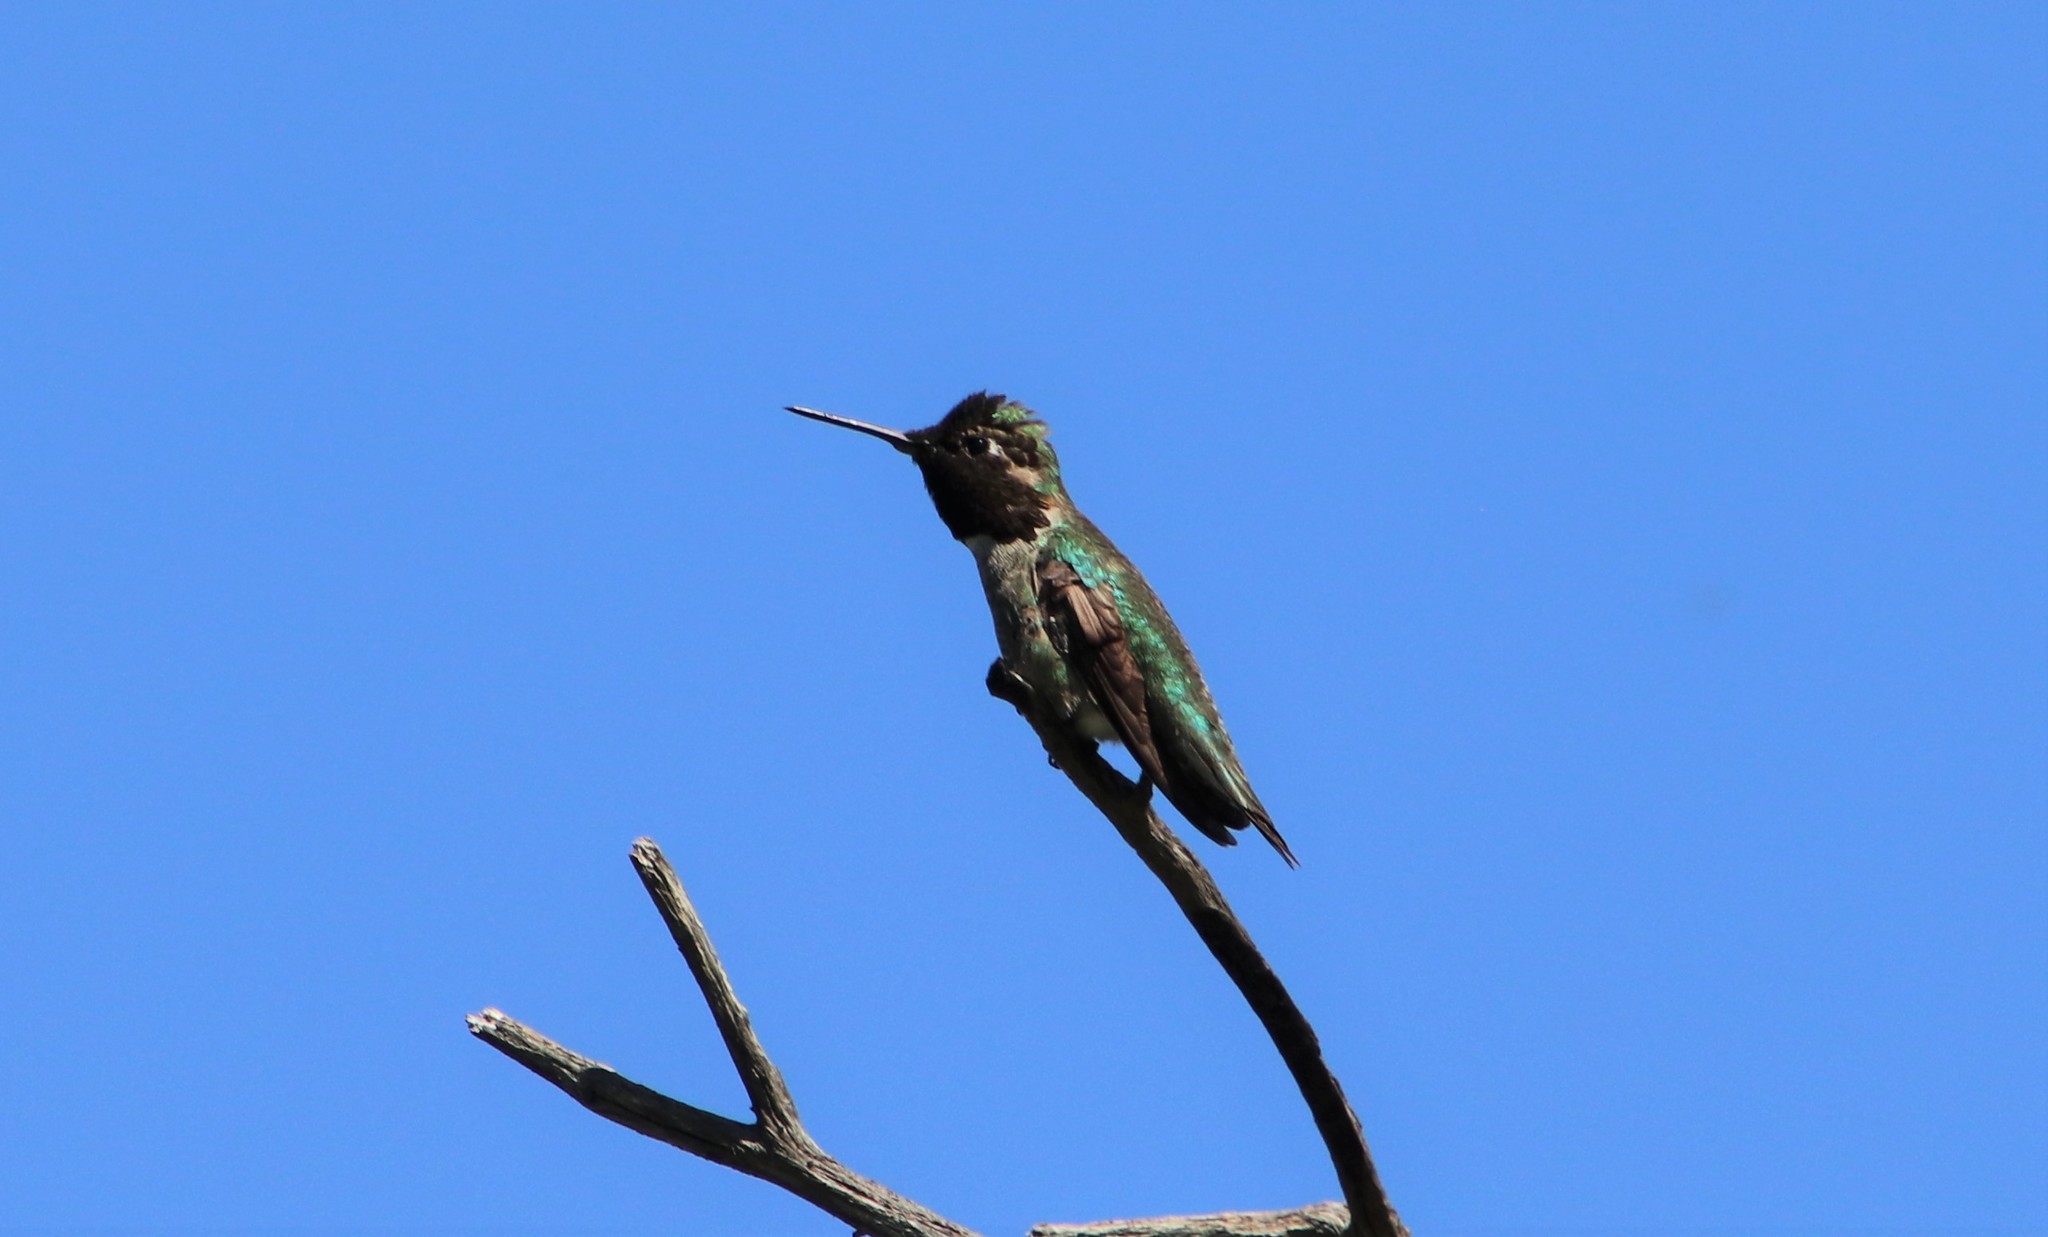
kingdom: Animalia
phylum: Chordata
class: Aves
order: Apodiformes
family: Trochilidae
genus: Calypte
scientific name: Calypte anna
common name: Anna's hummingbird
